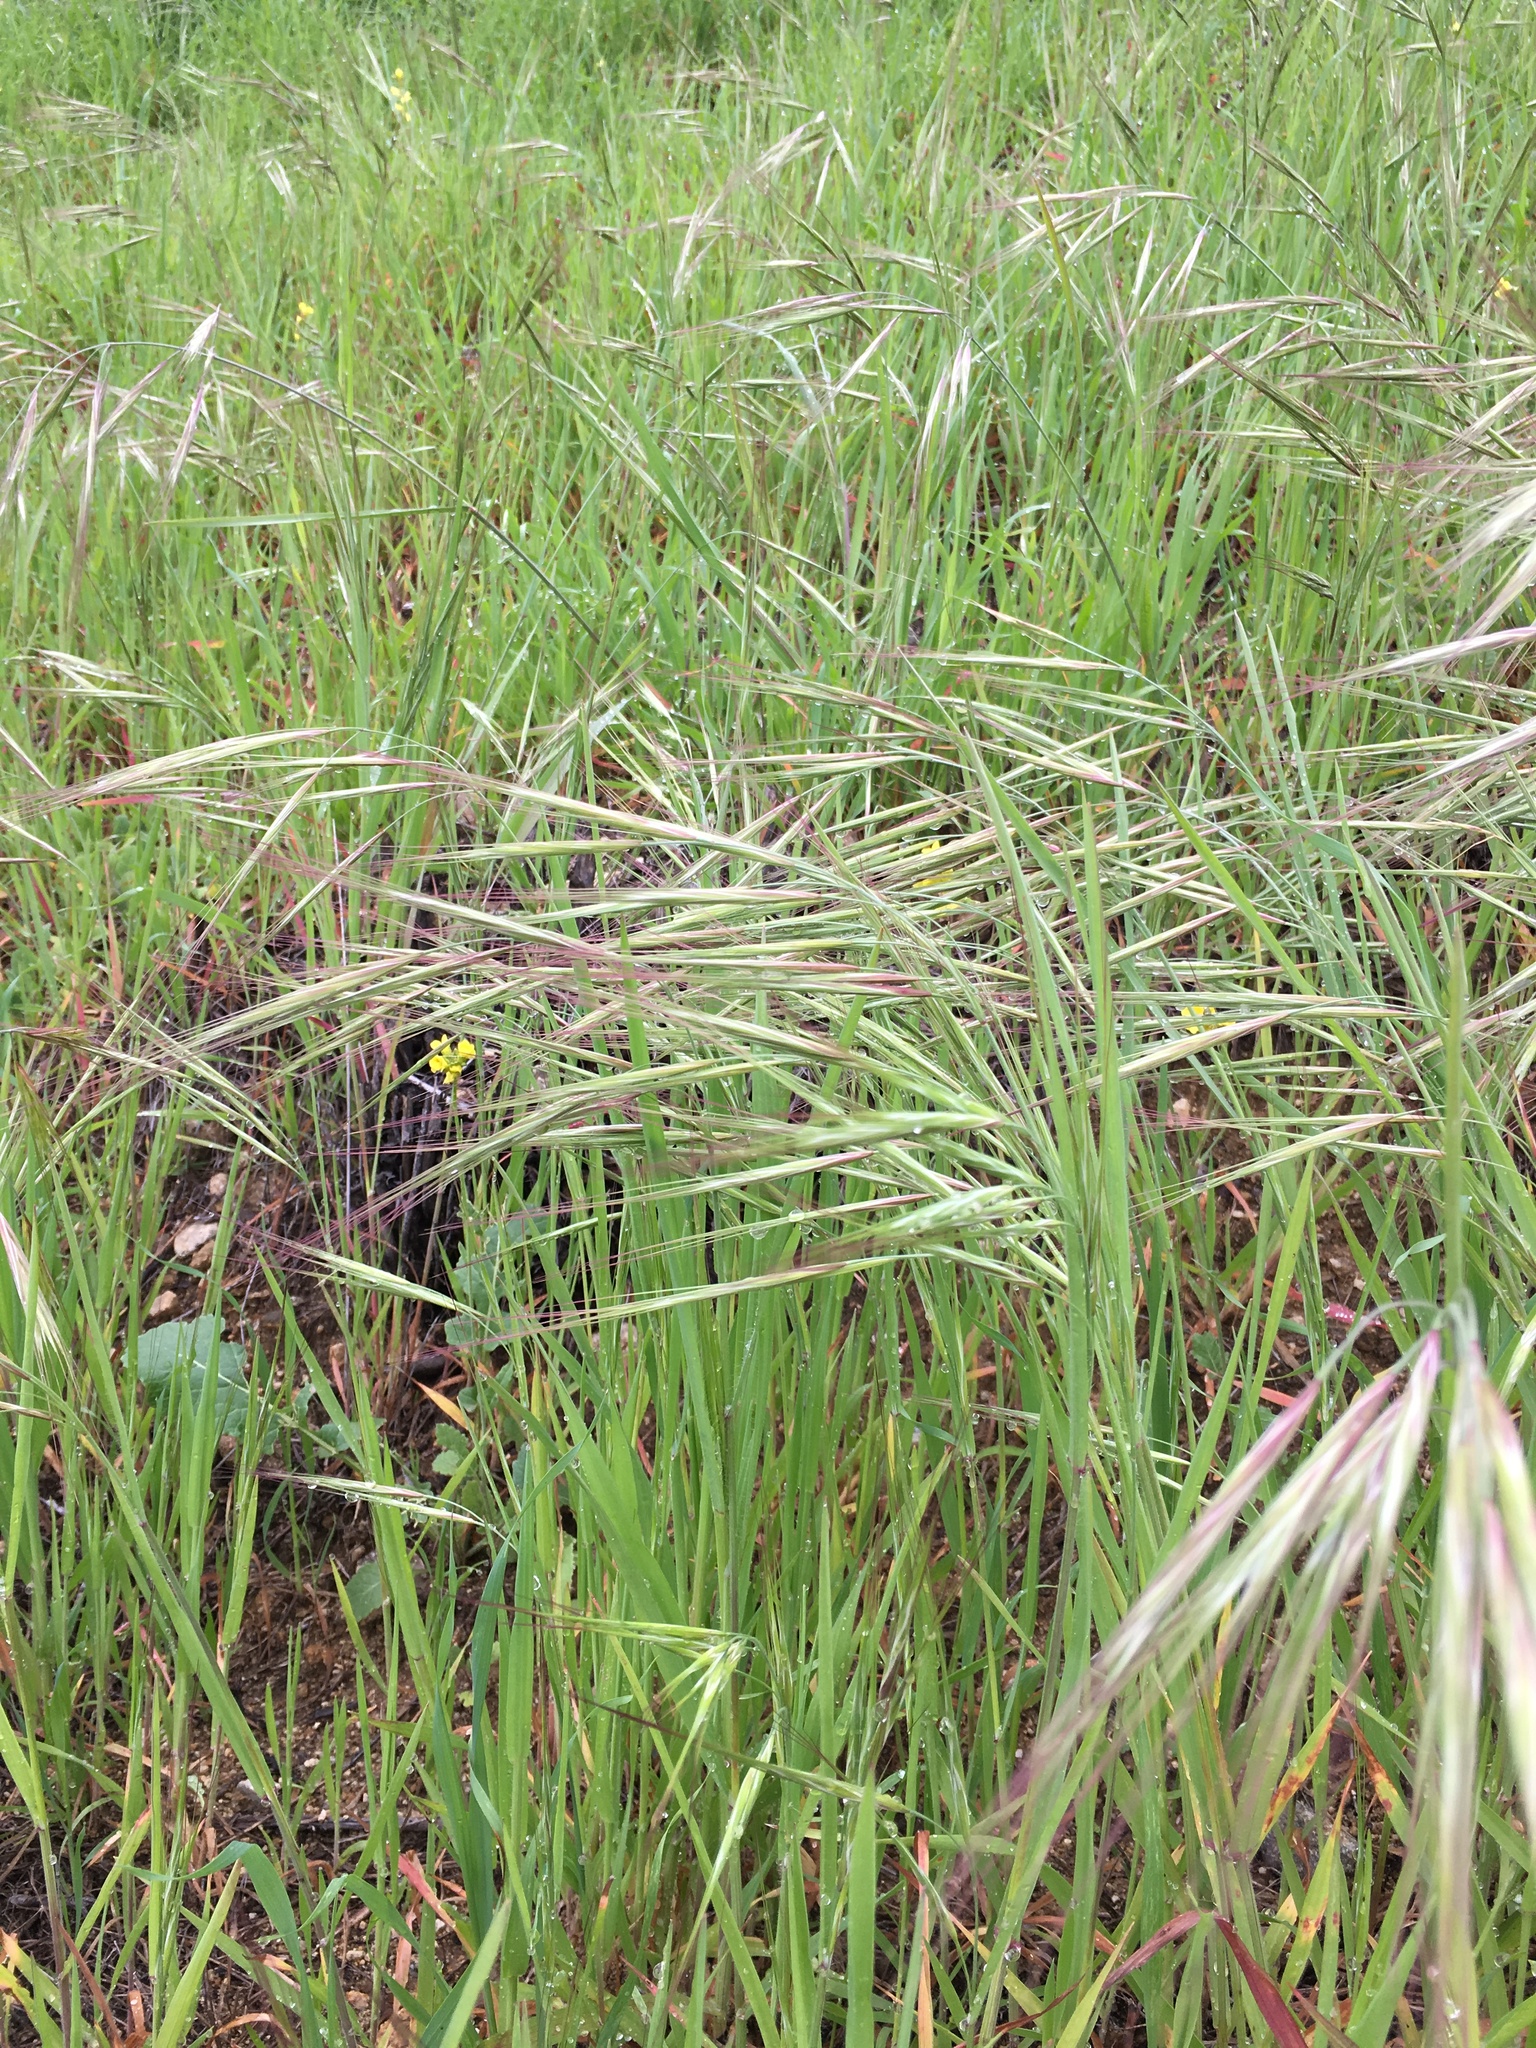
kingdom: Plantae
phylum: Tracheophyta
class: Liliopsida
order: Poales
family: Poaceae
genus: Bromus
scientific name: Bromus diandrus
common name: Ripgut brome
